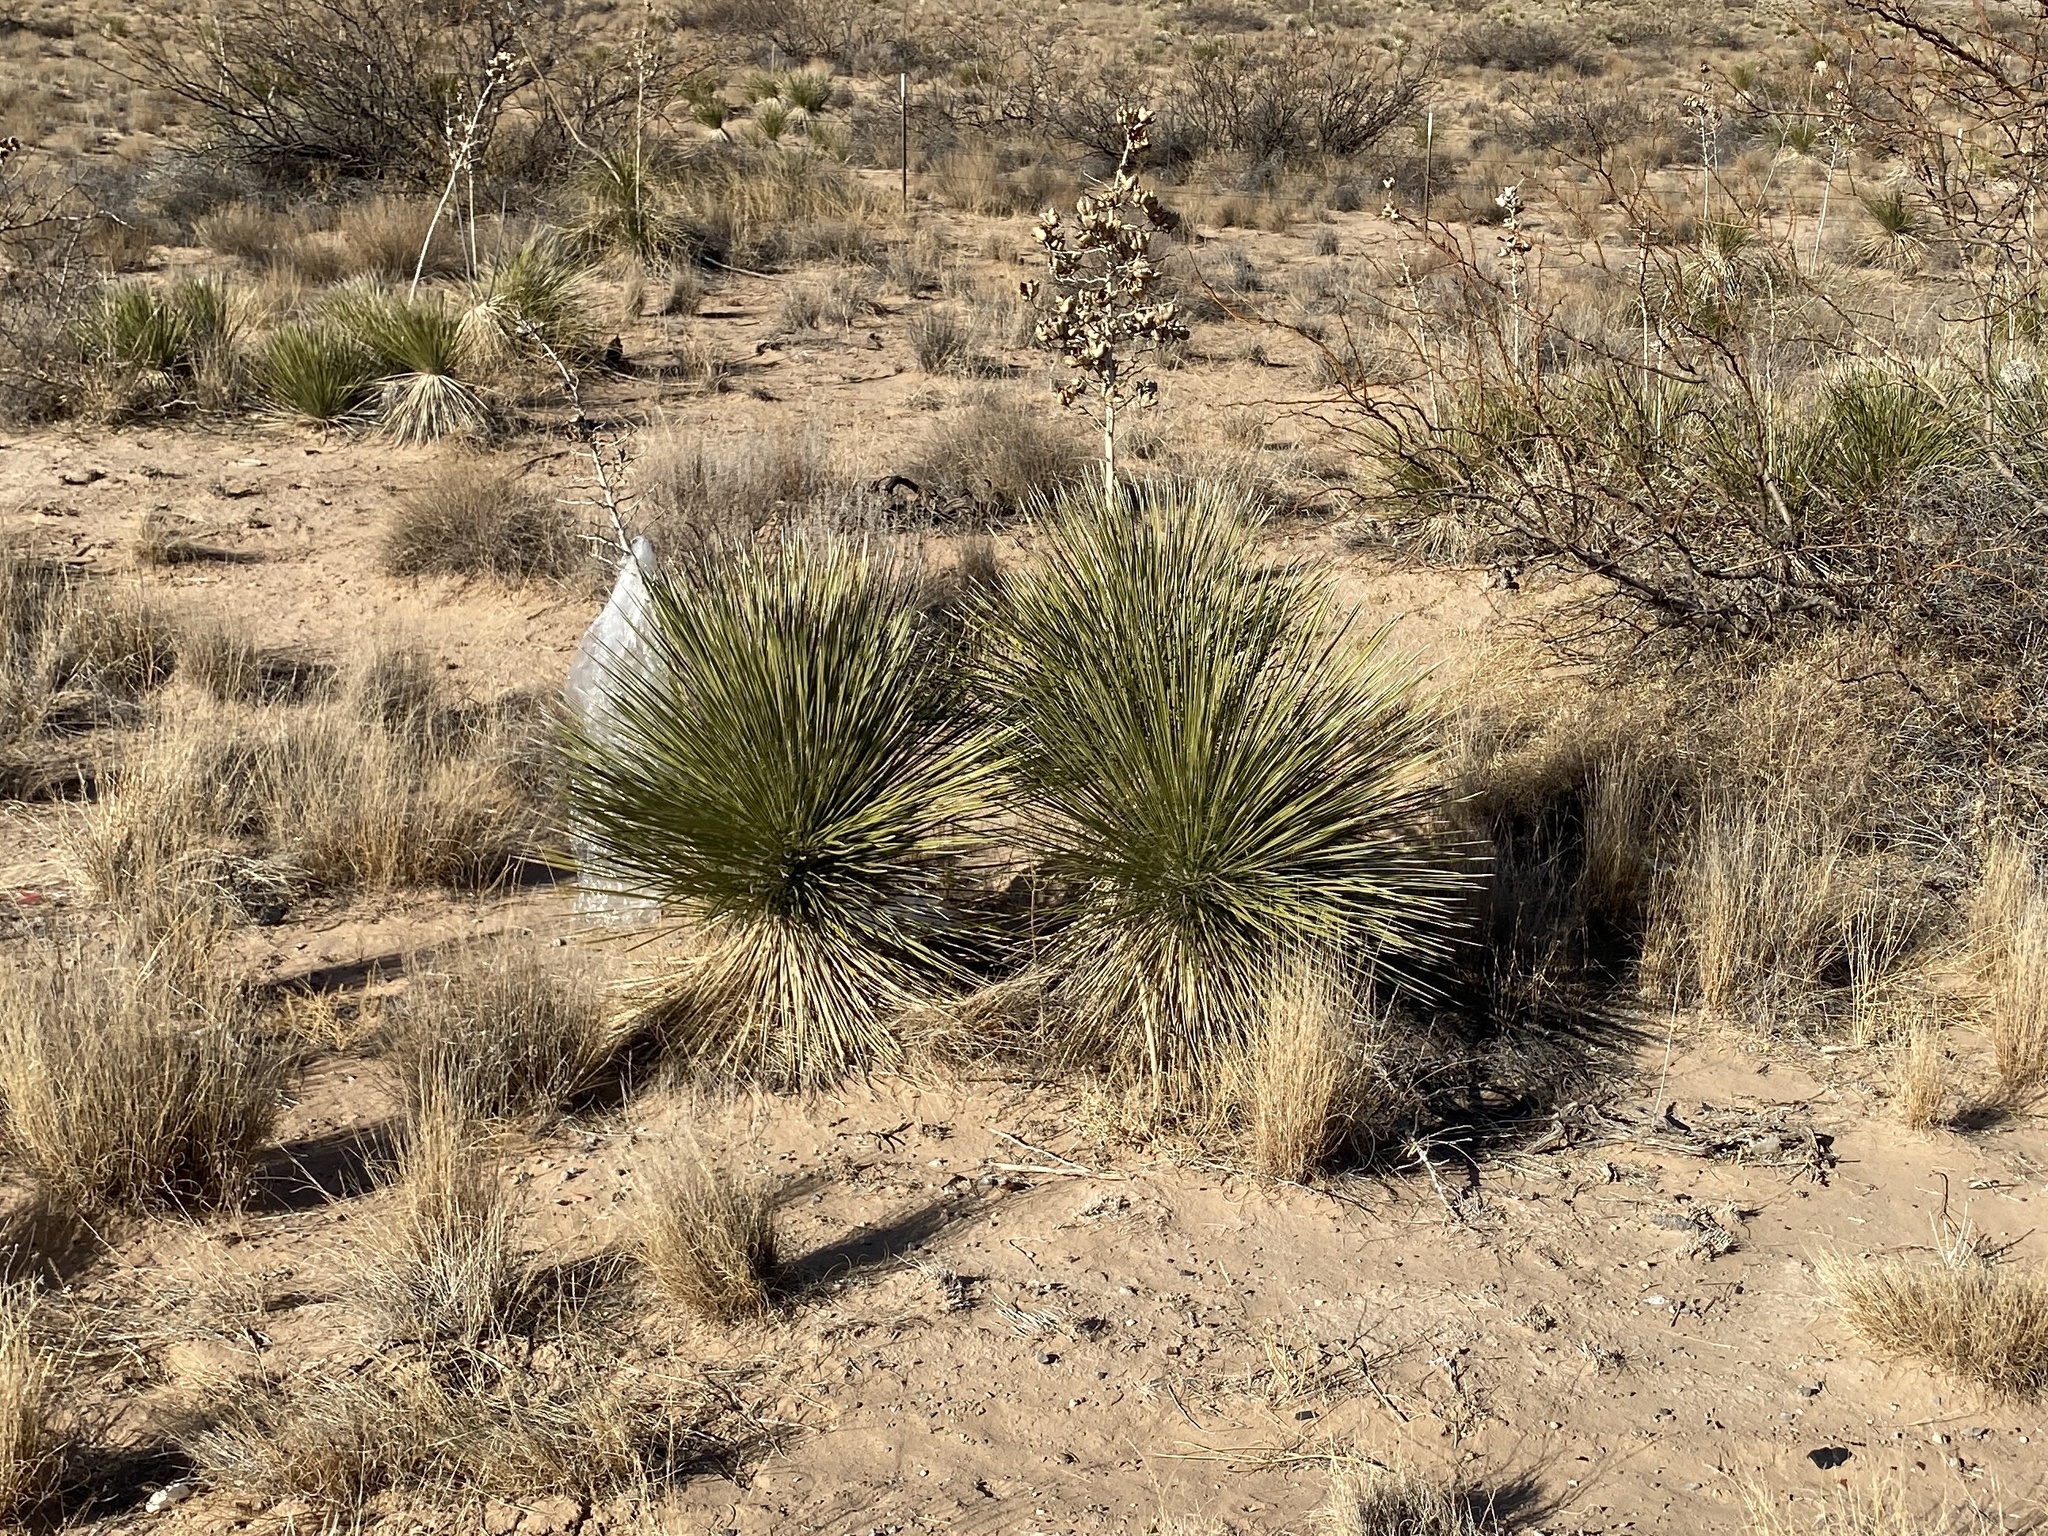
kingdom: Plantae
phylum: Tracheophyta
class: Liliopsida
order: Asparagales
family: Asparagaceae
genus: Yucca
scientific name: Yucca elata
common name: Palmella
